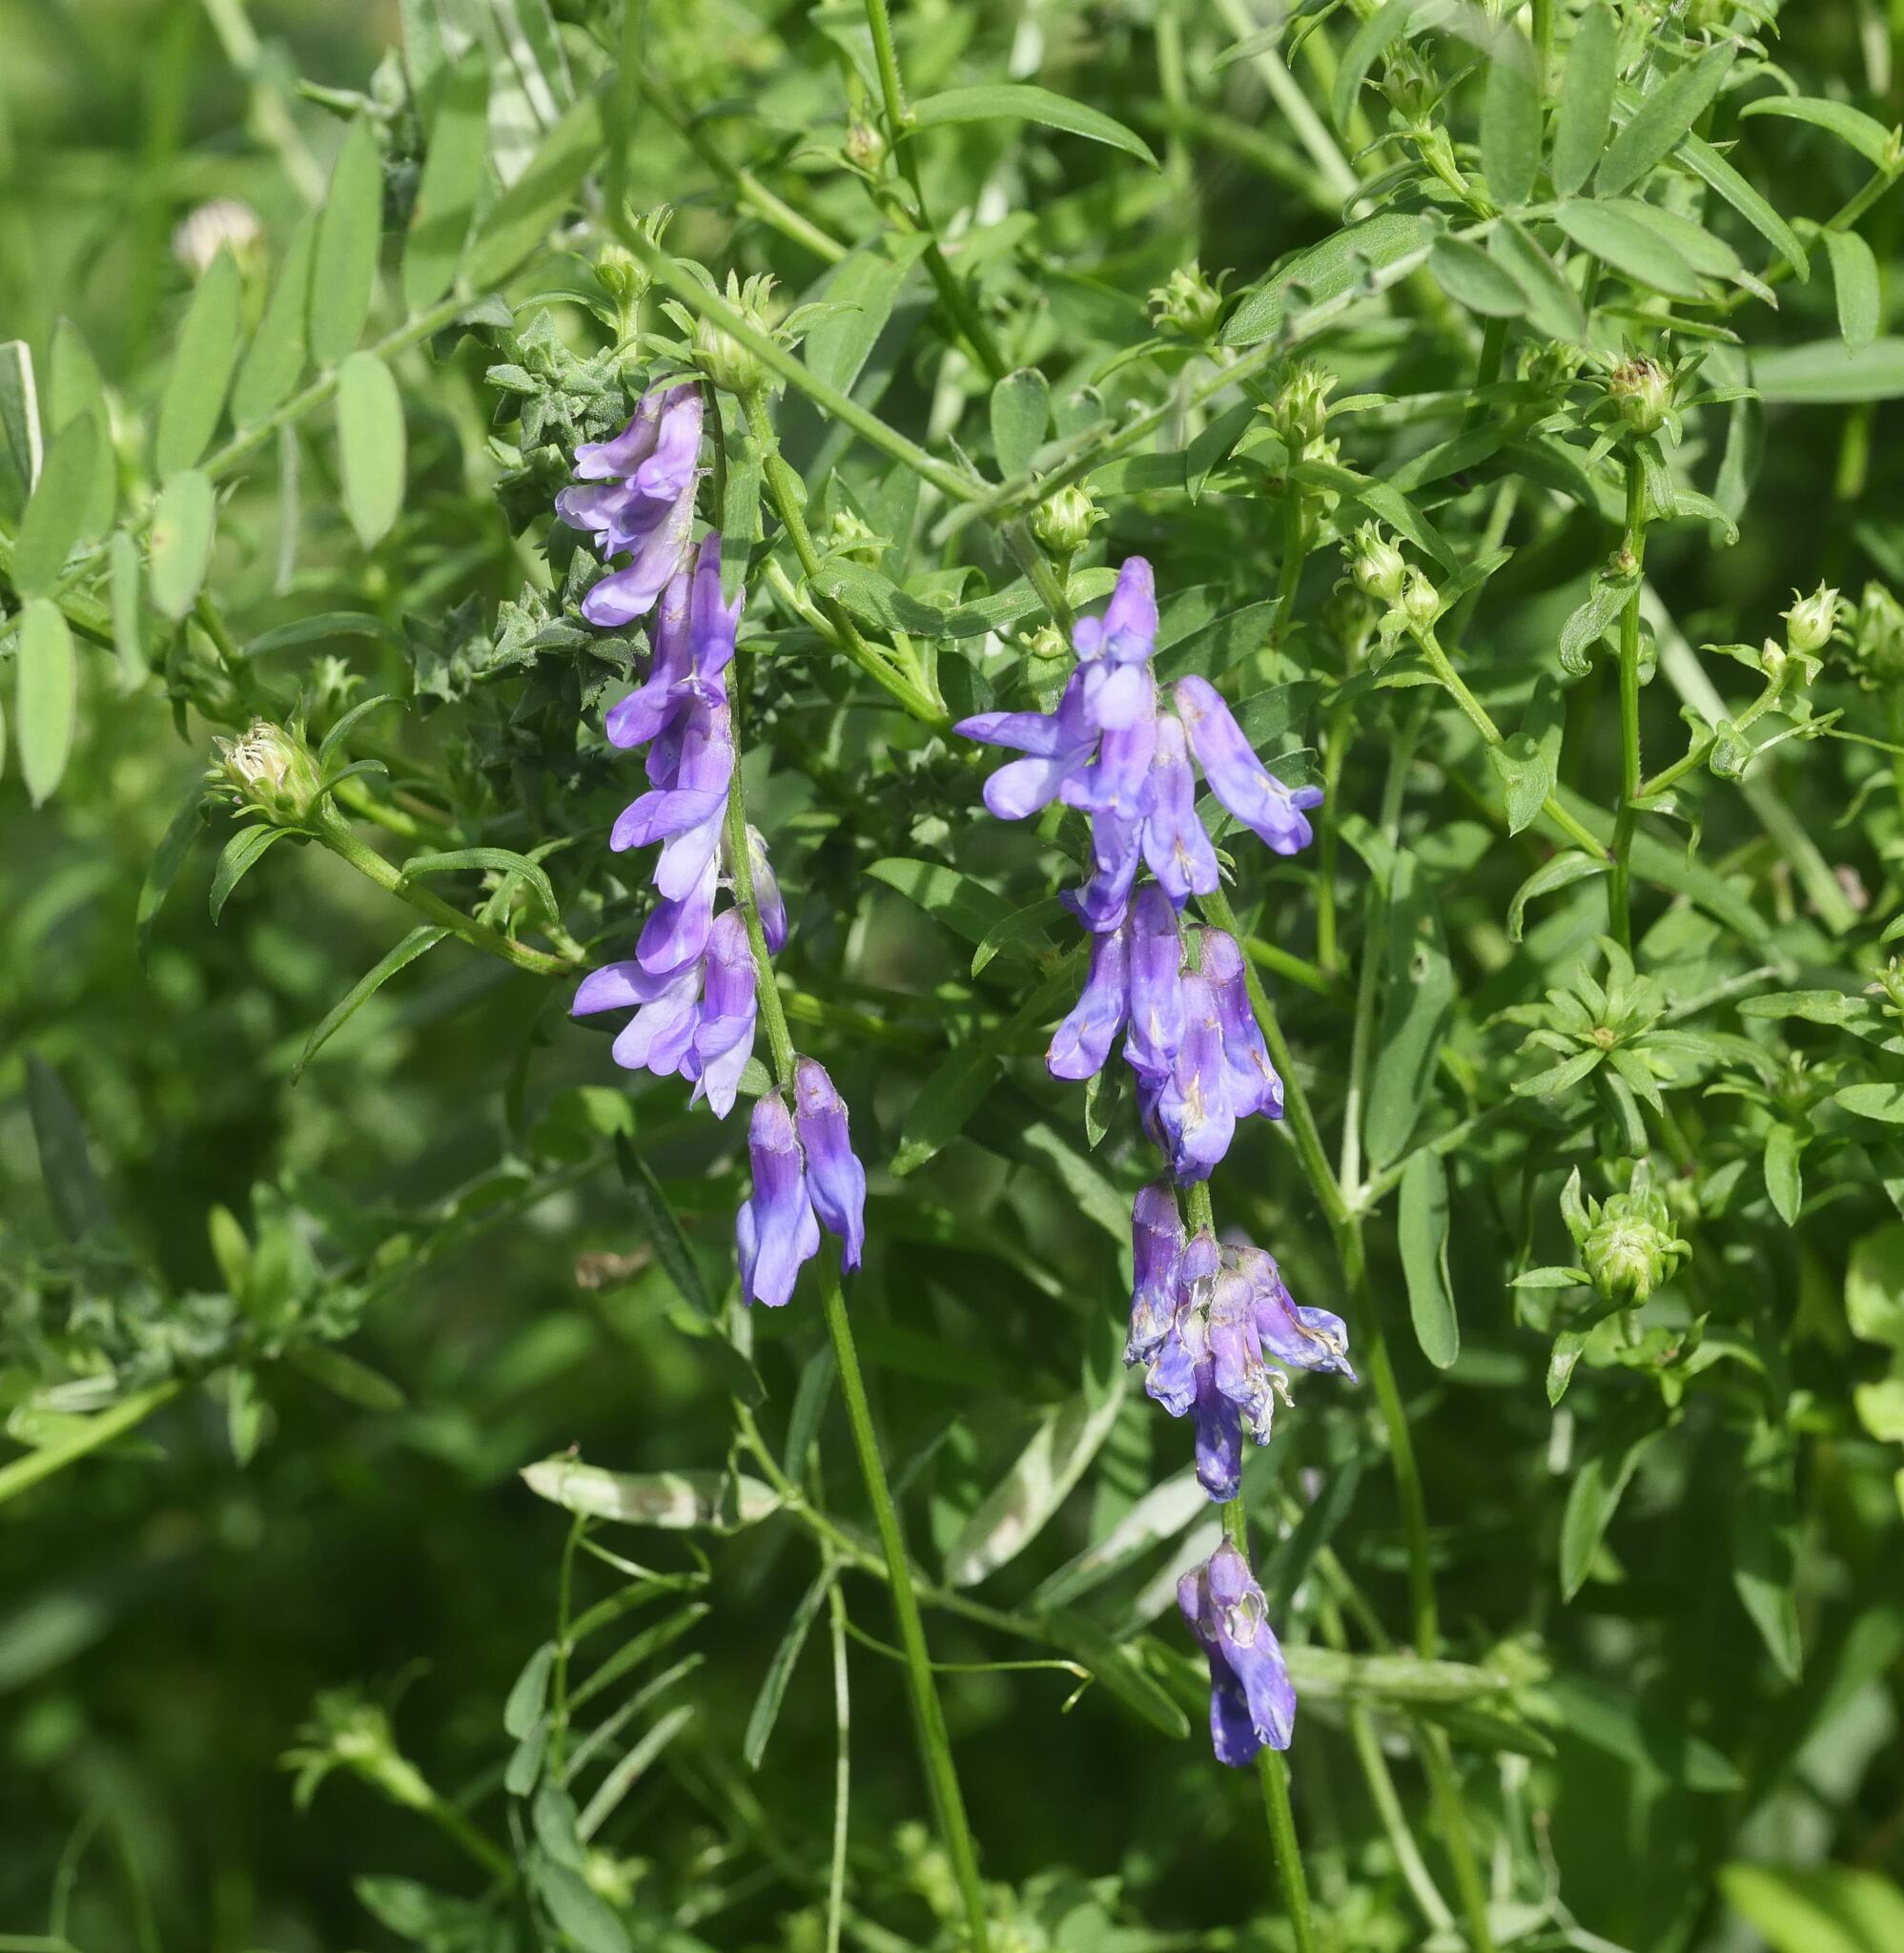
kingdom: Plantae
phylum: Tracheophyta
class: Magnoliopsida
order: Fabales
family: Fabaceae
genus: Vicia
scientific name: Vicia cracca
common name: Bird vetch
